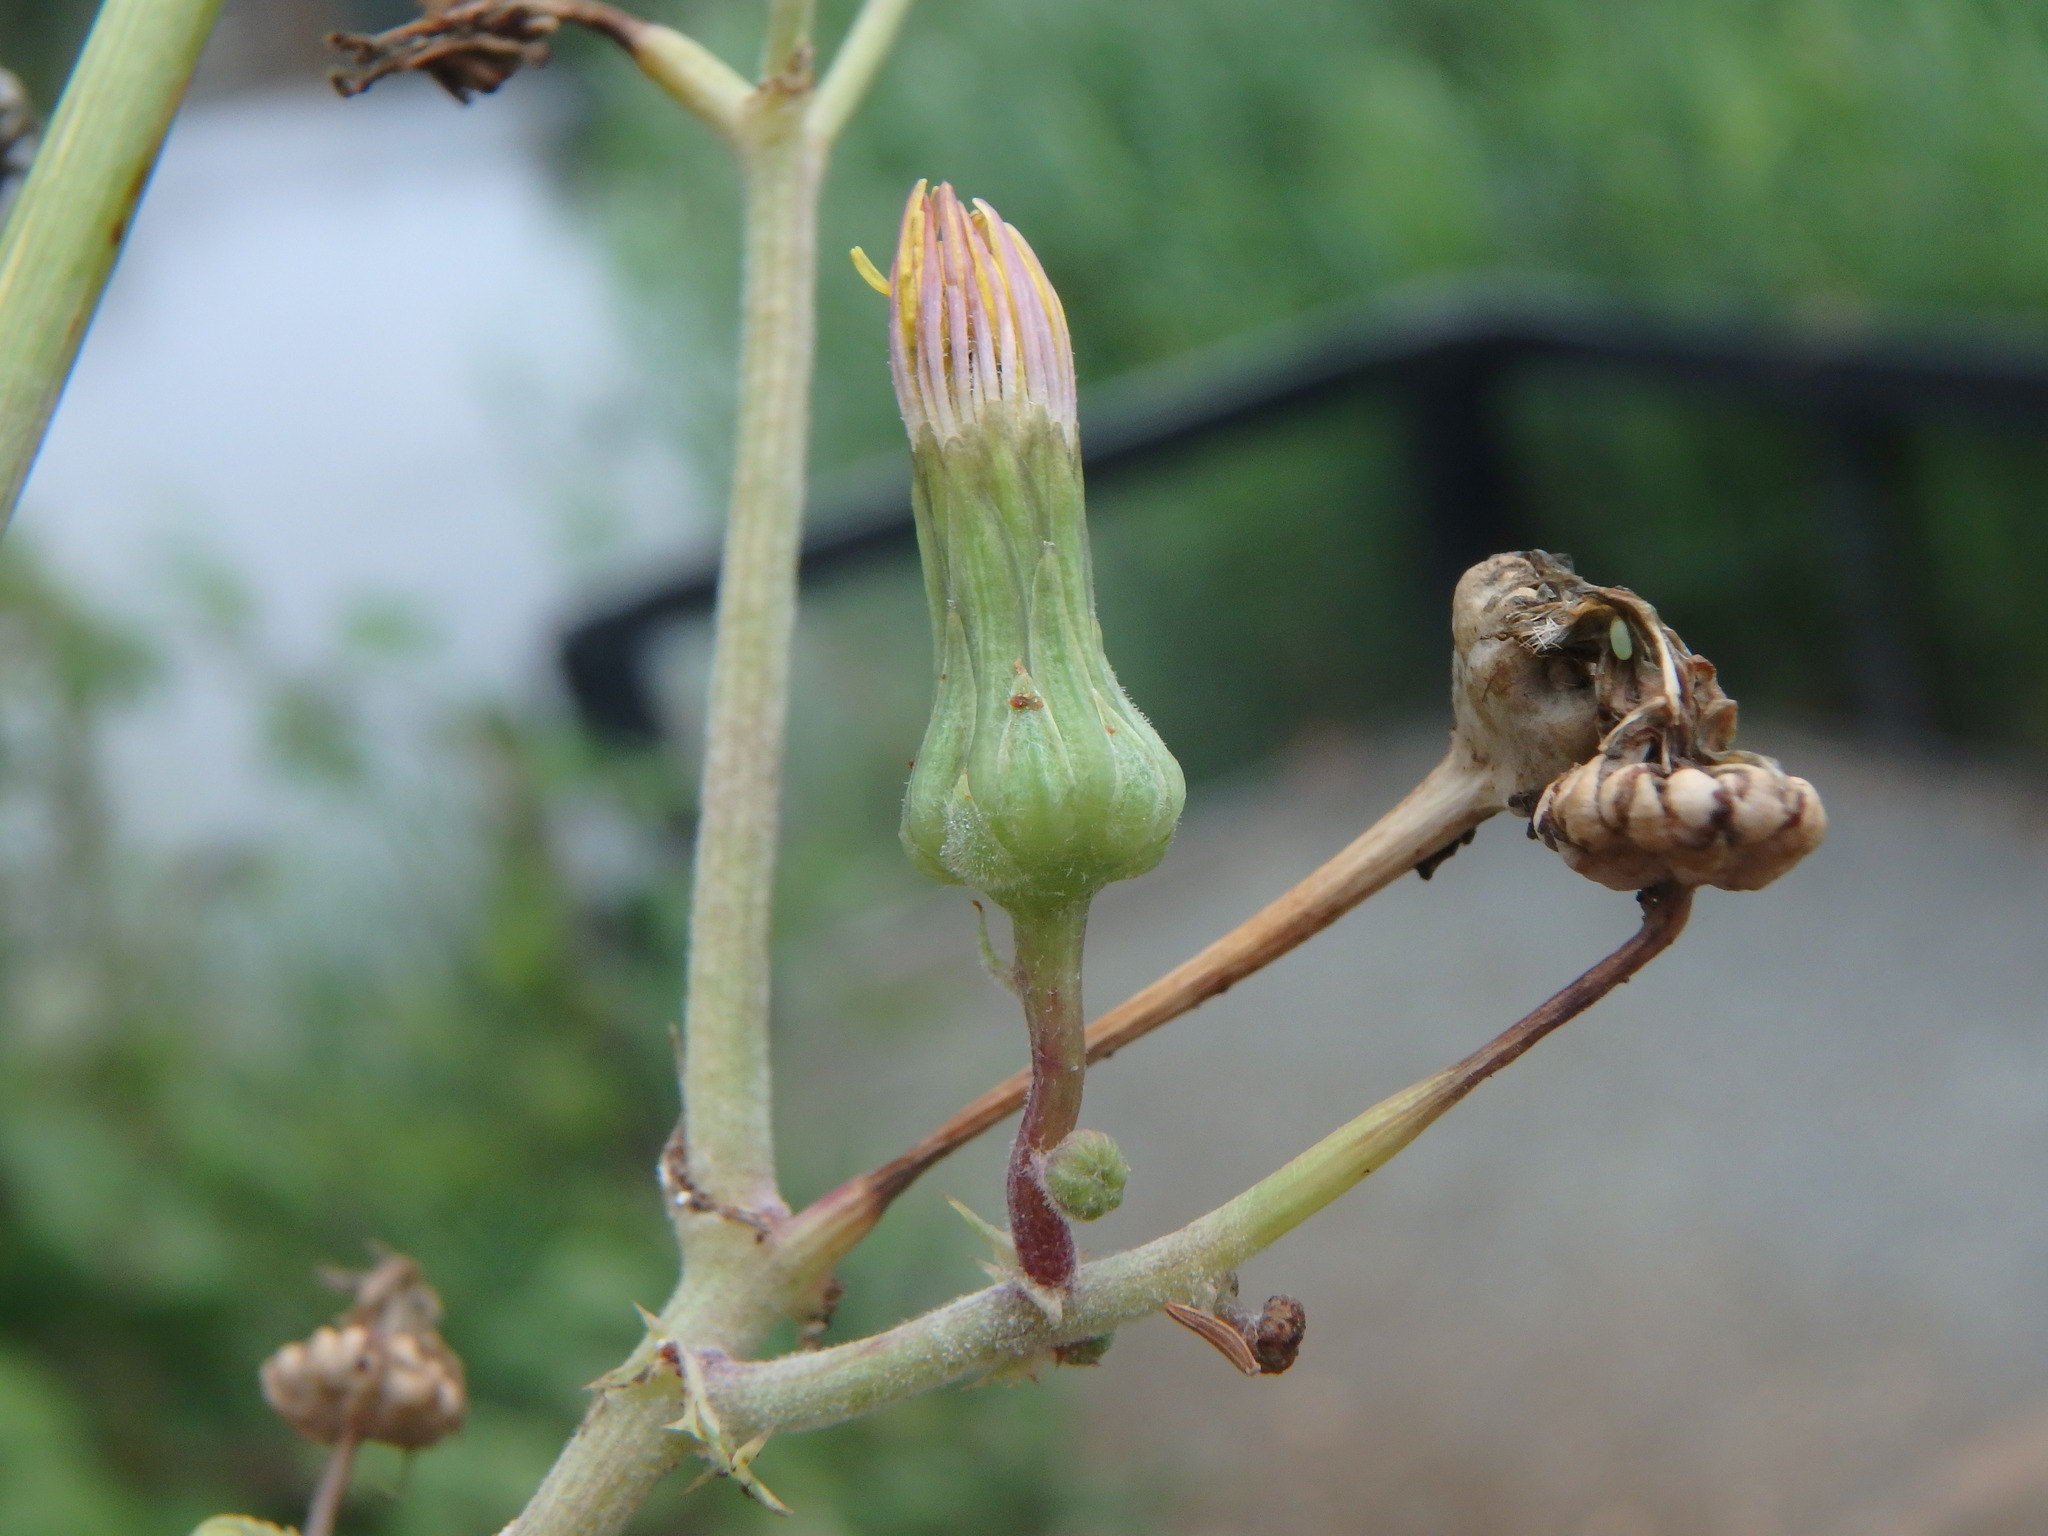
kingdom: Plantae
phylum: Tracheophyta
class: Magnoliopsida
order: Asterales
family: Asteraceae
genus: Sonchus
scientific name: Sonchus asper
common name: Prickly sow-thistle
